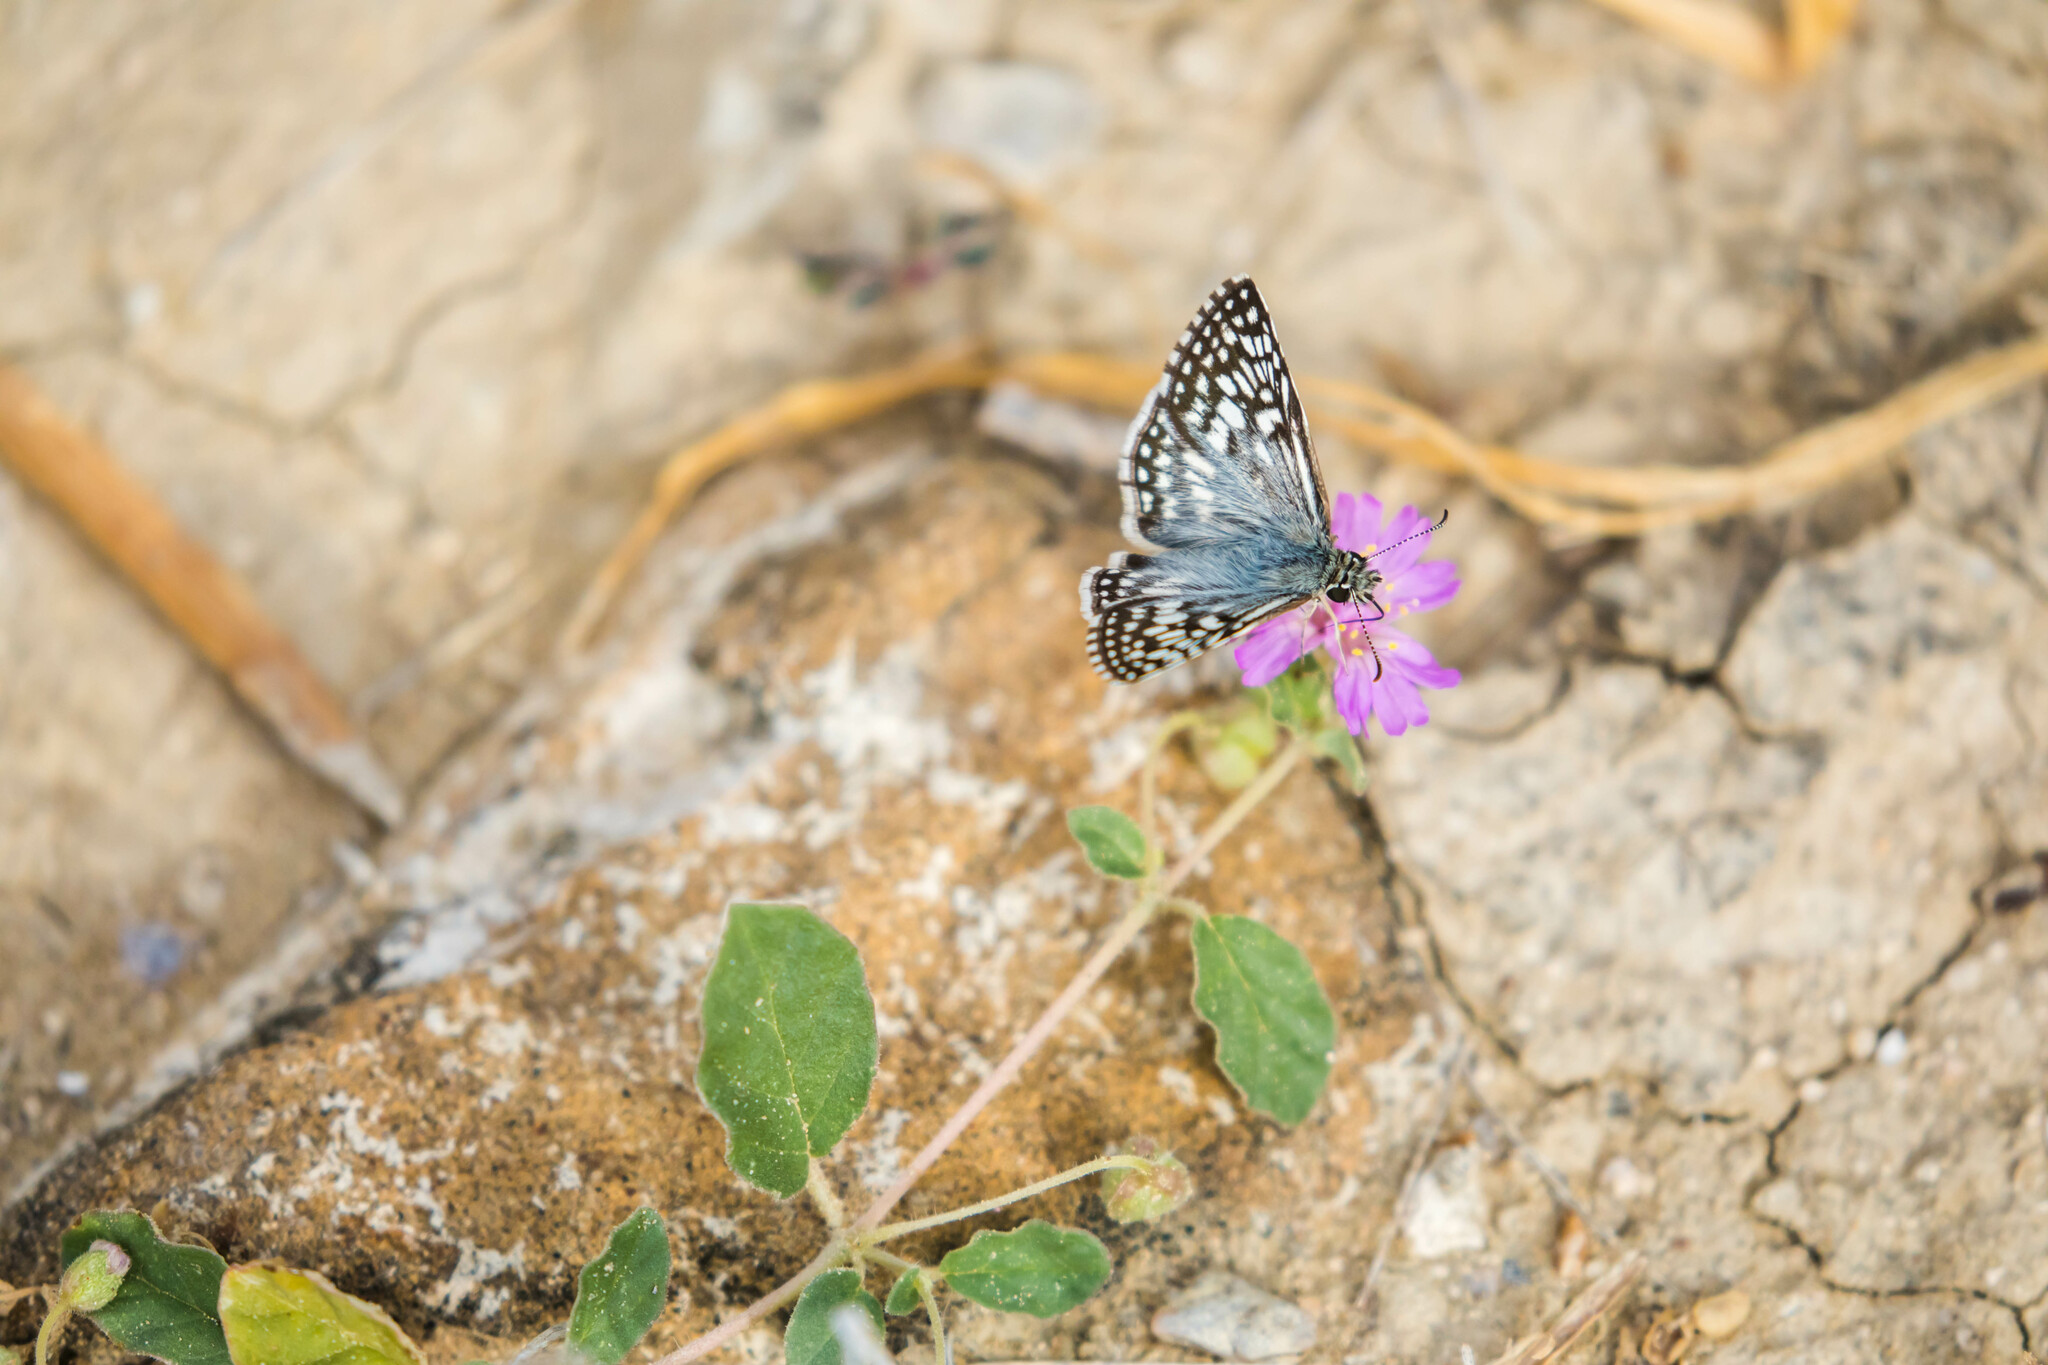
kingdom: Animalia
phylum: Arthropoda
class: Insecta
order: Lepidoptera
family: Hesperiidae
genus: Pyrgus
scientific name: Pyrgus oileus
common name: Tropical checkered-skipper
